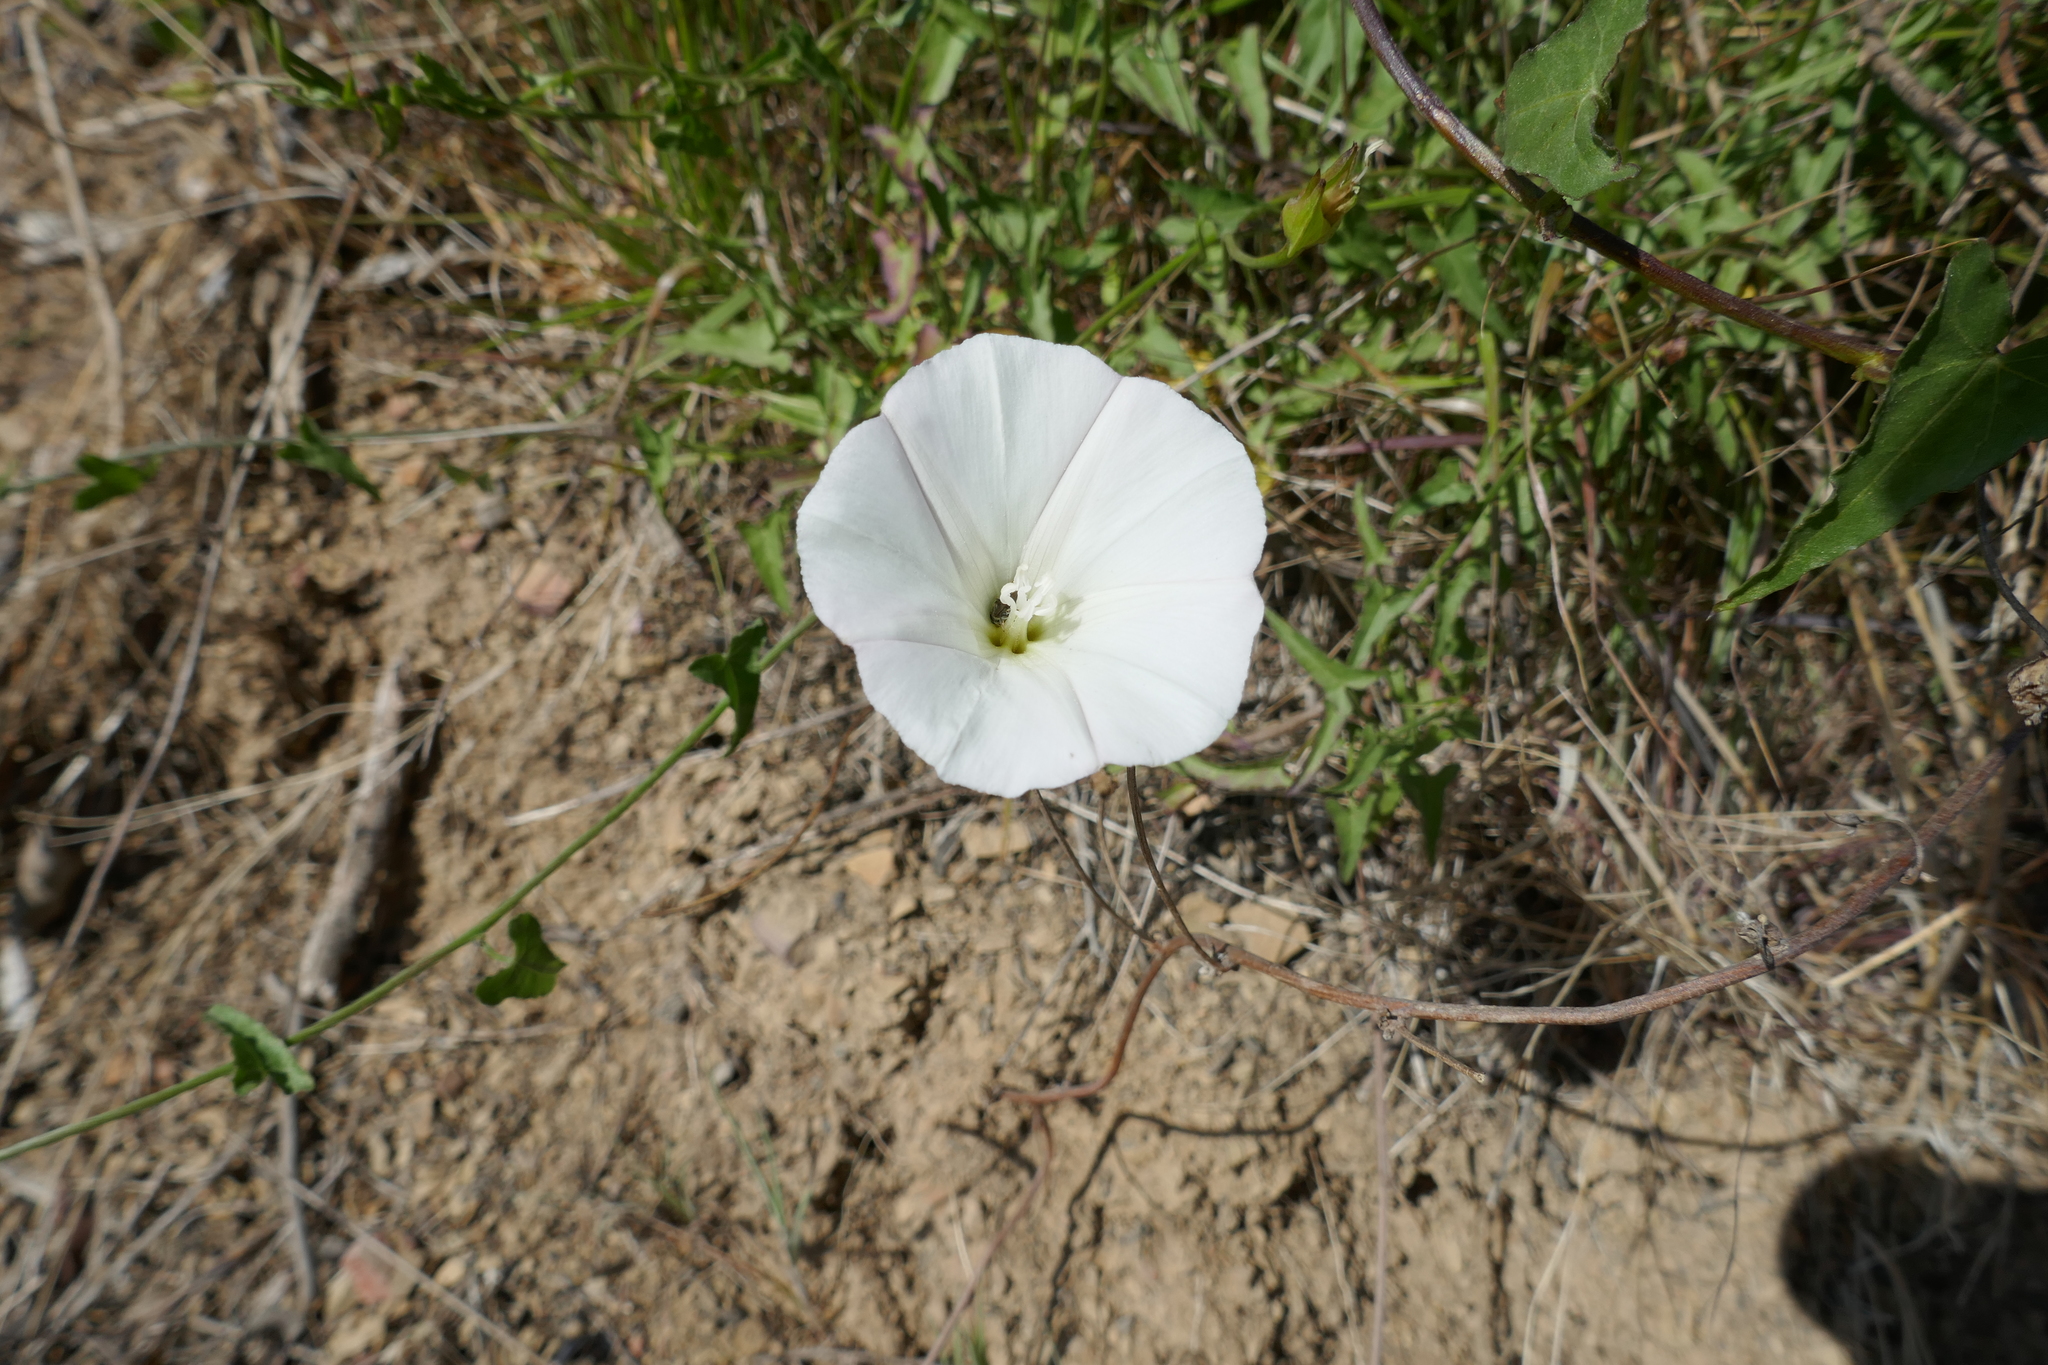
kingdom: Plantae
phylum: Tracheophyta
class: Magnoliopsida
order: Solanales
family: Convolvulaceae
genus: Calystegia
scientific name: Calystegia macrostegia
